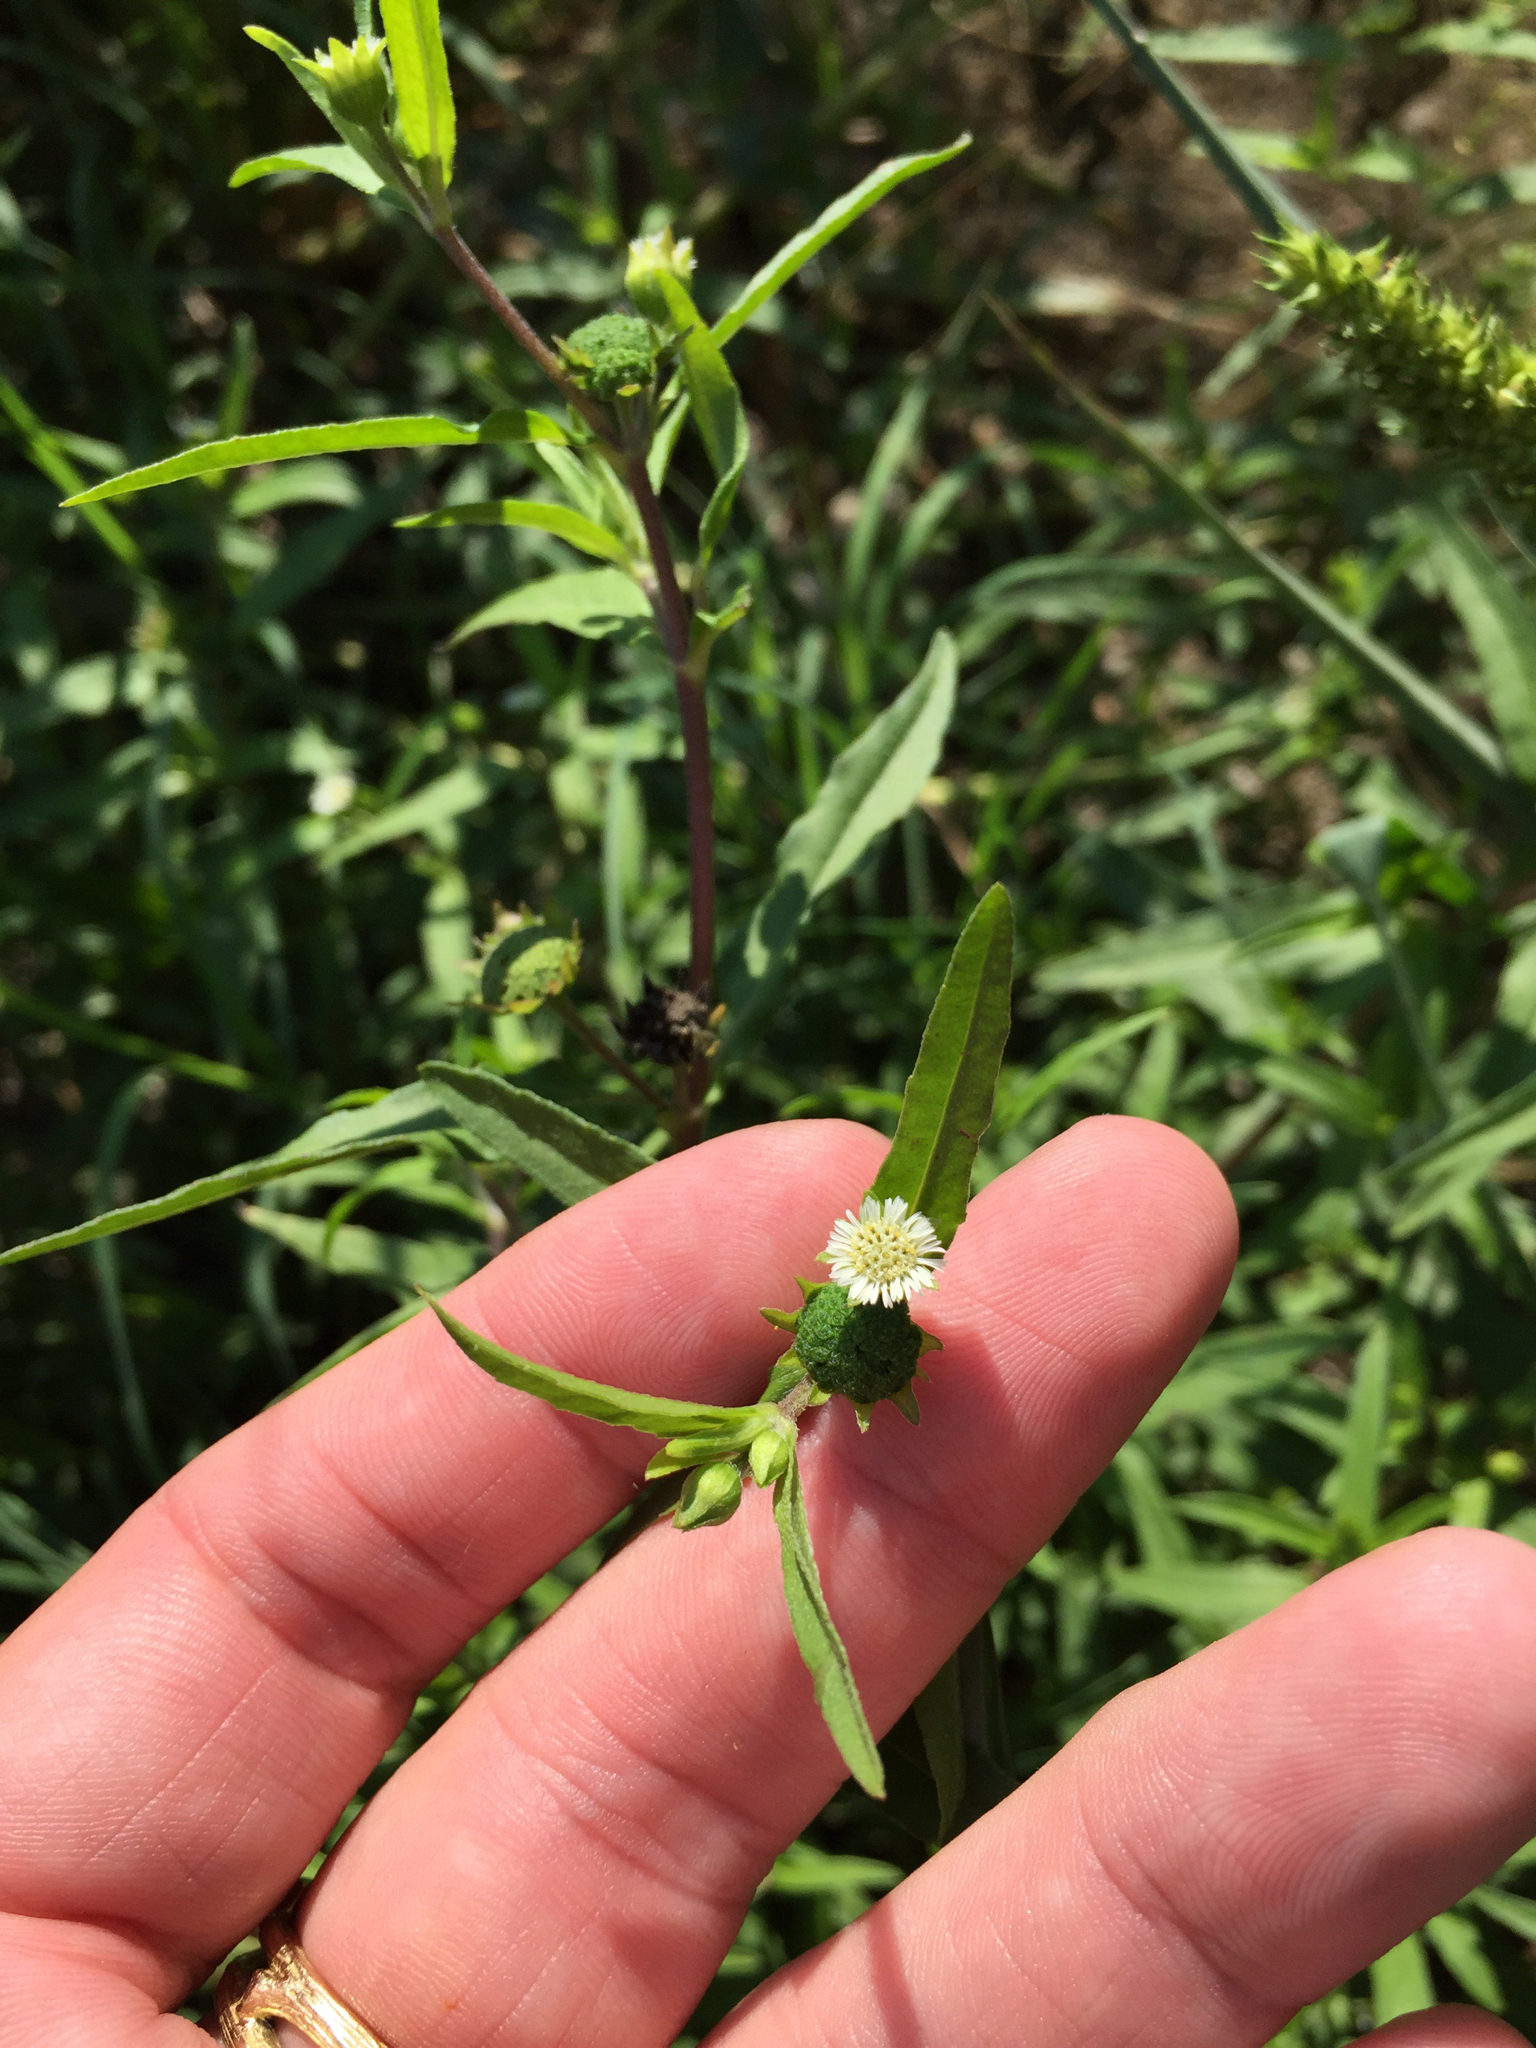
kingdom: Plantae
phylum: Tracheophyta
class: Magnoliopsida
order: Asterales
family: Asteraceae
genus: Eclipta
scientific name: Eclipta prostrata
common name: False daisy
